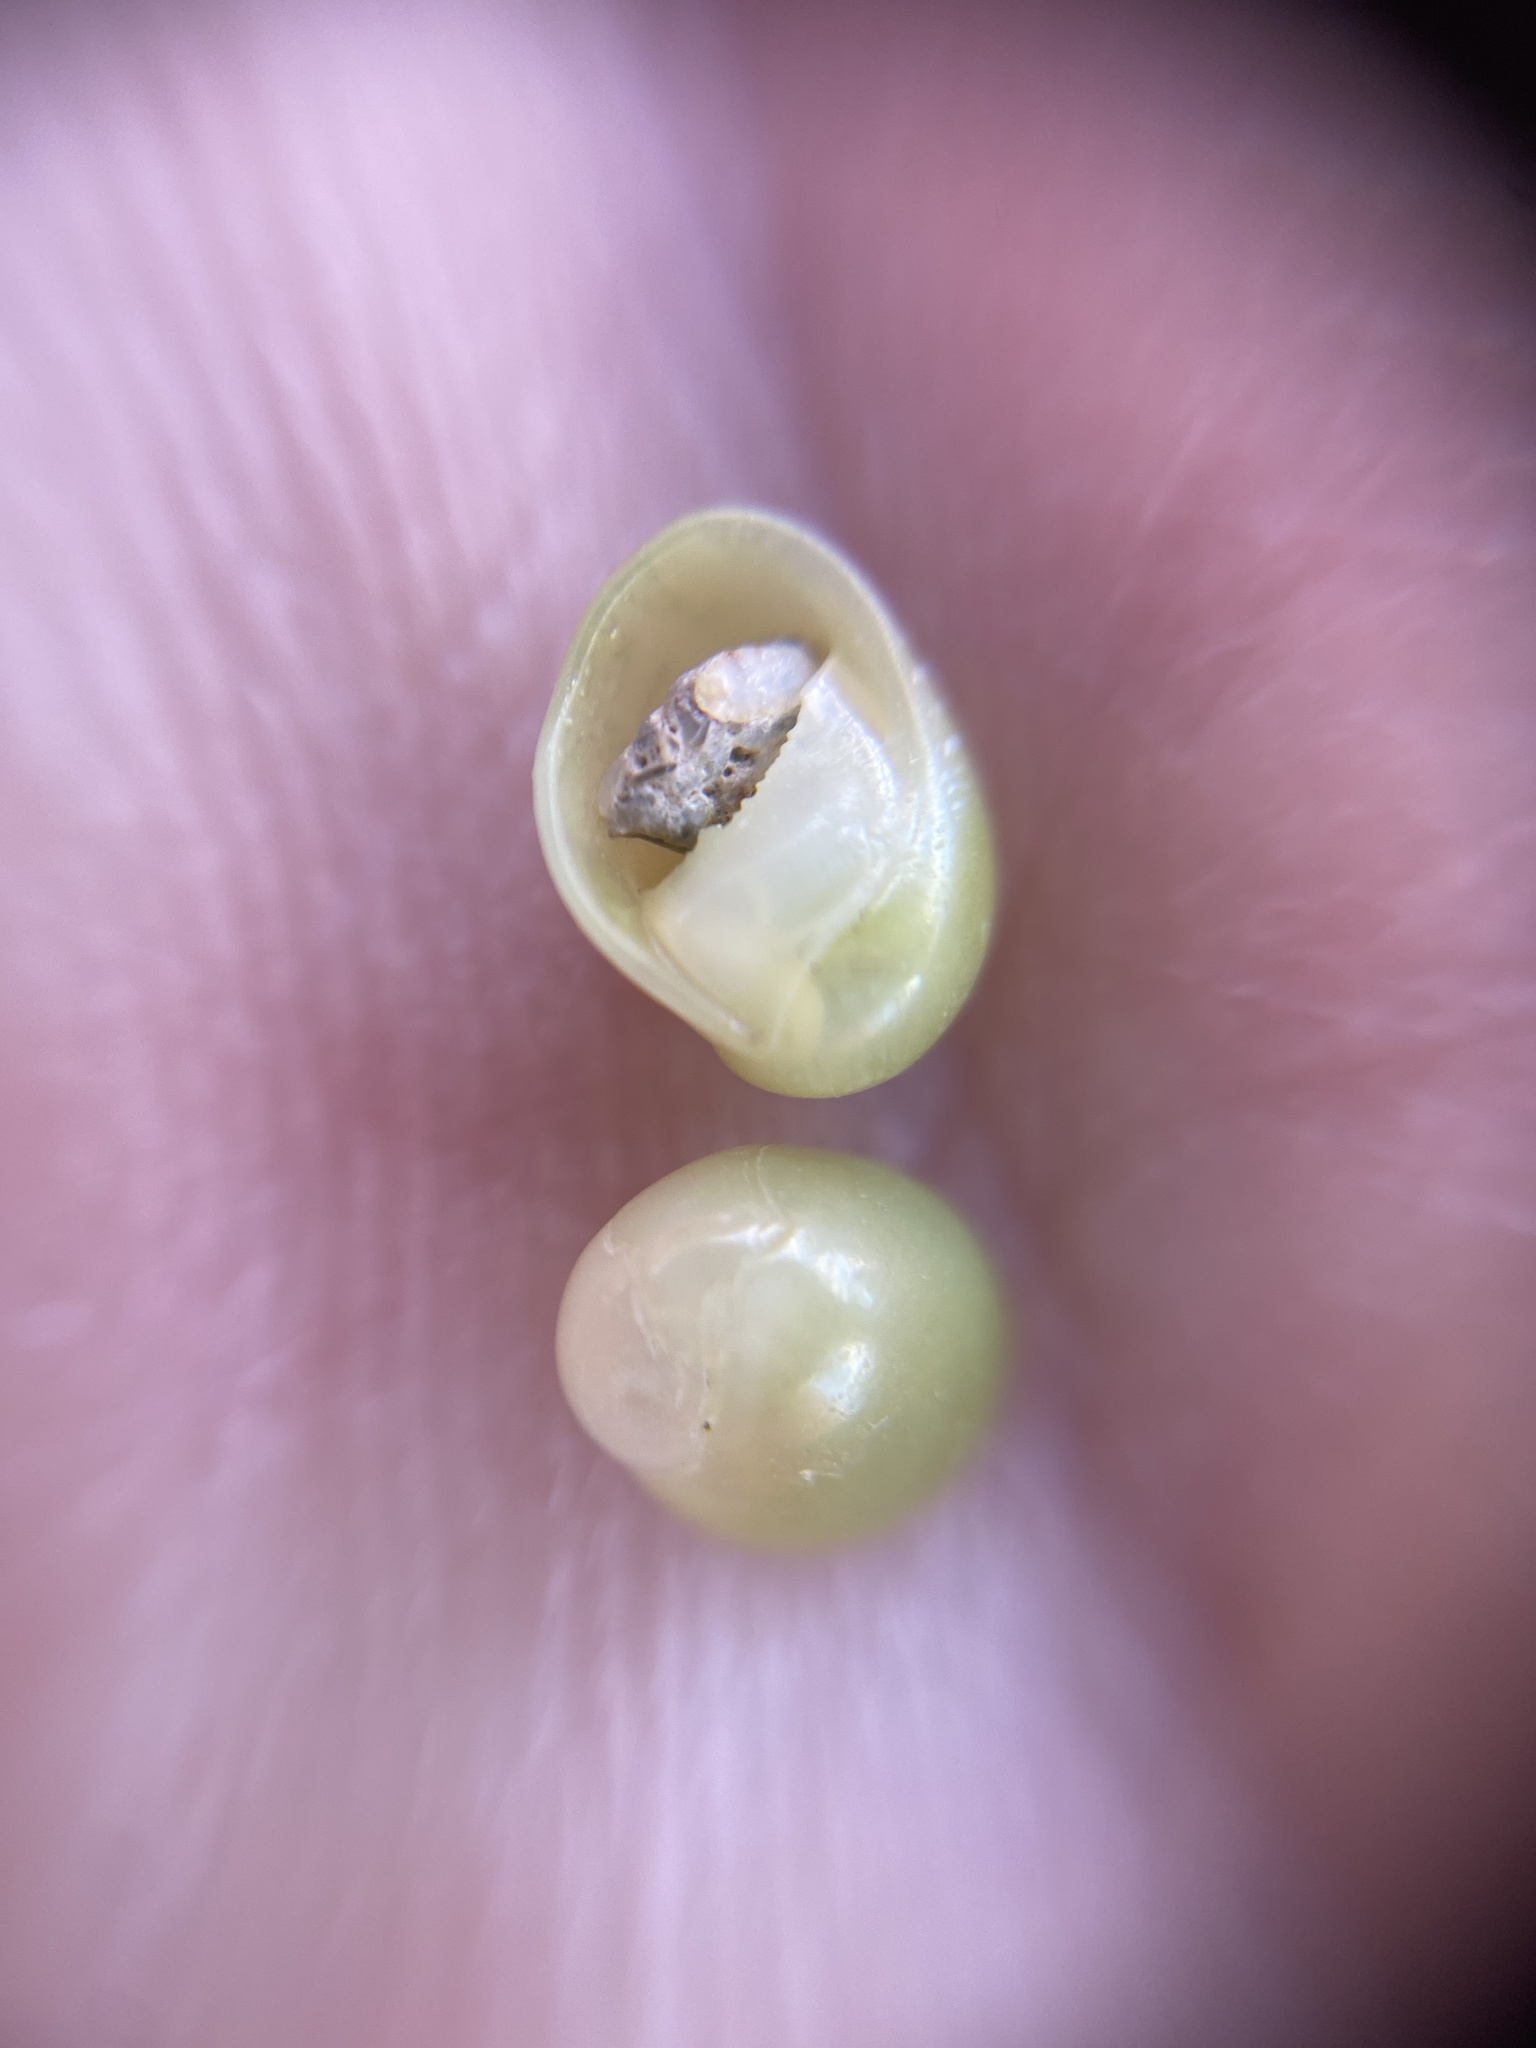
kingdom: Animalia
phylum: Mollusca
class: Gastropoda
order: Cycloneritida
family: Neritidae
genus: Smaragdia
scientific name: Smaragdia viridis
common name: Emerald nerite
